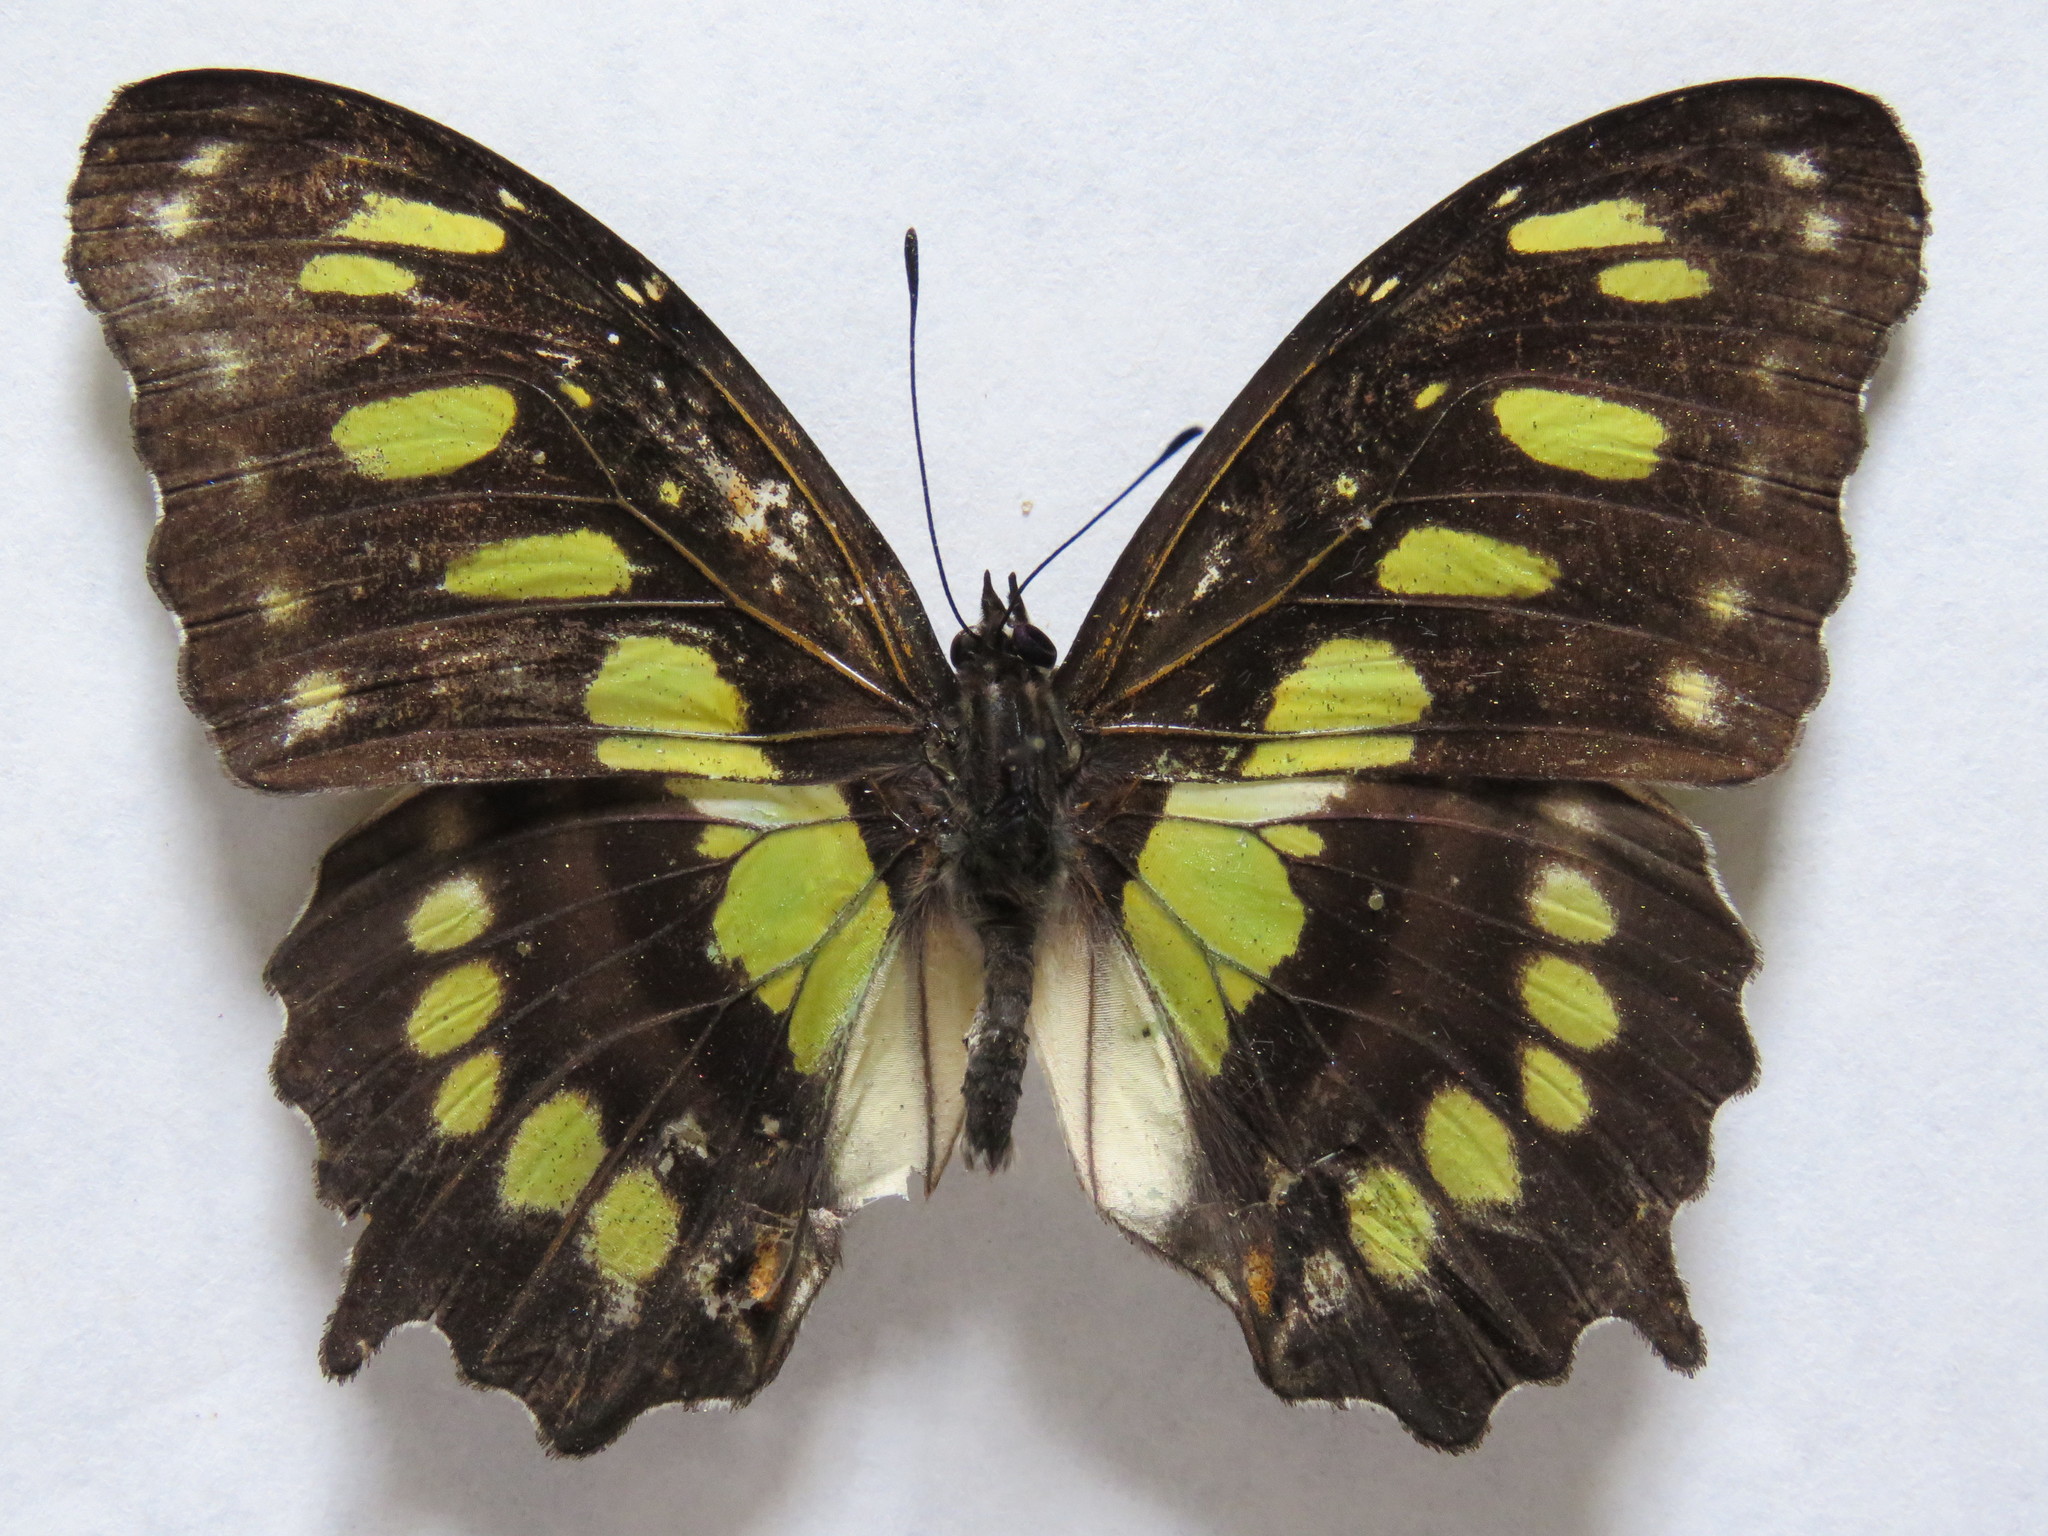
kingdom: Animalia
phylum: Arthropoda
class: Insecta
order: Lepidoptera
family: Nymphalidae
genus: Siproeta
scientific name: Siproeta stelenes
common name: Malachite
